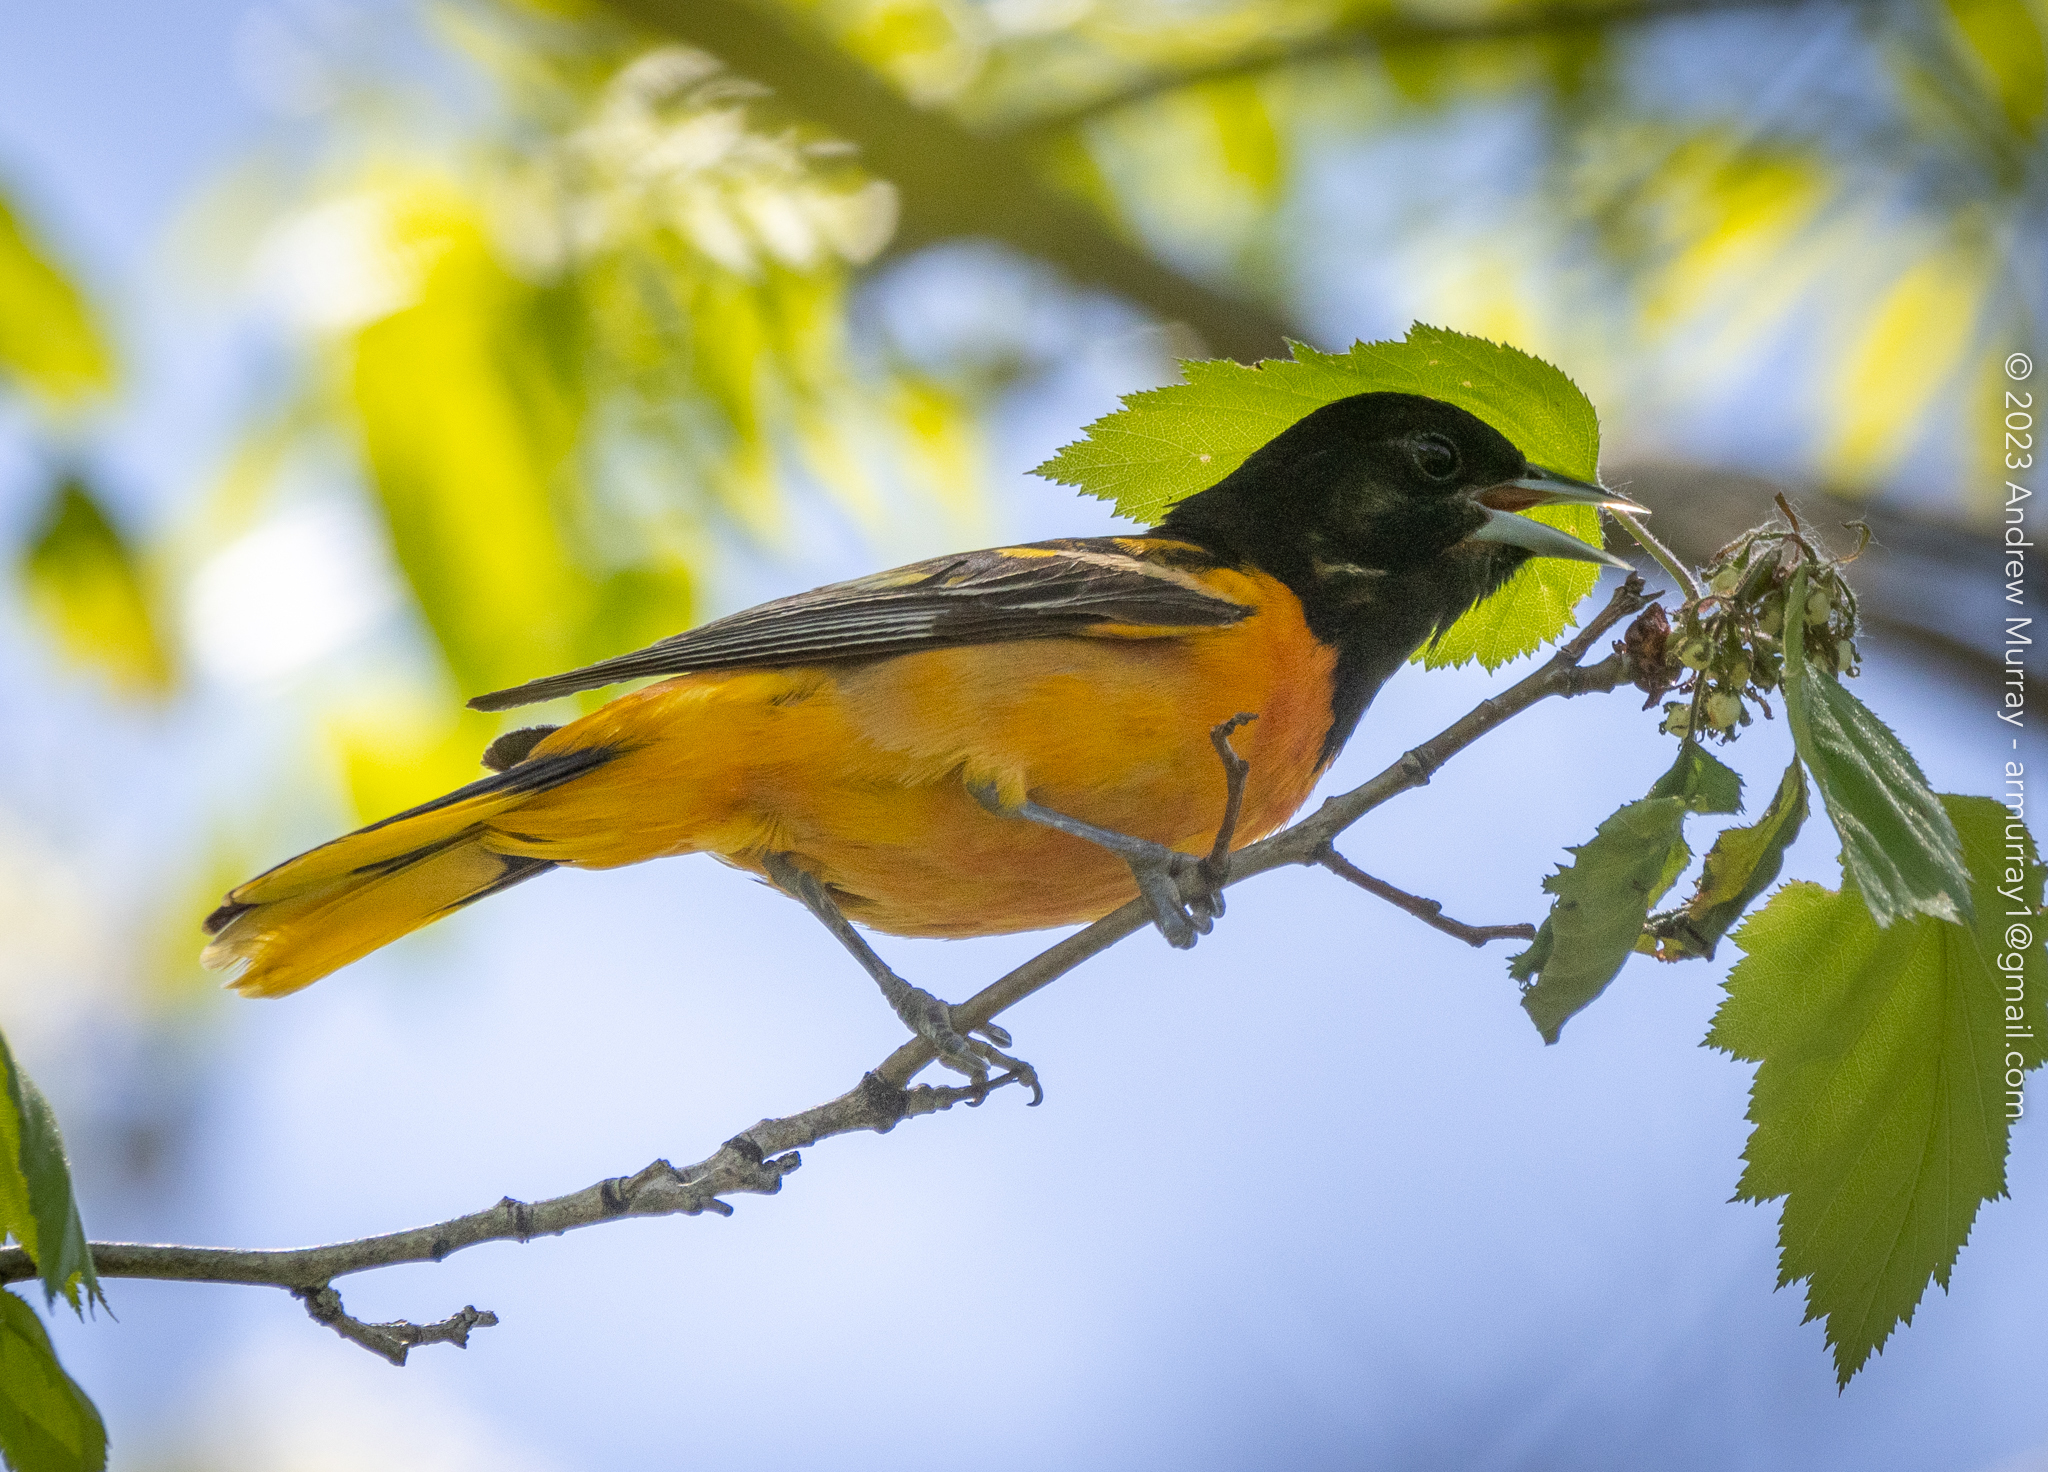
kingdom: Animalia
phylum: Chordata
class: Aves
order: Passeriformes
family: Icteridae
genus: Icterus
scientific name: Icterus galbula
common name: Baltimore oriole
